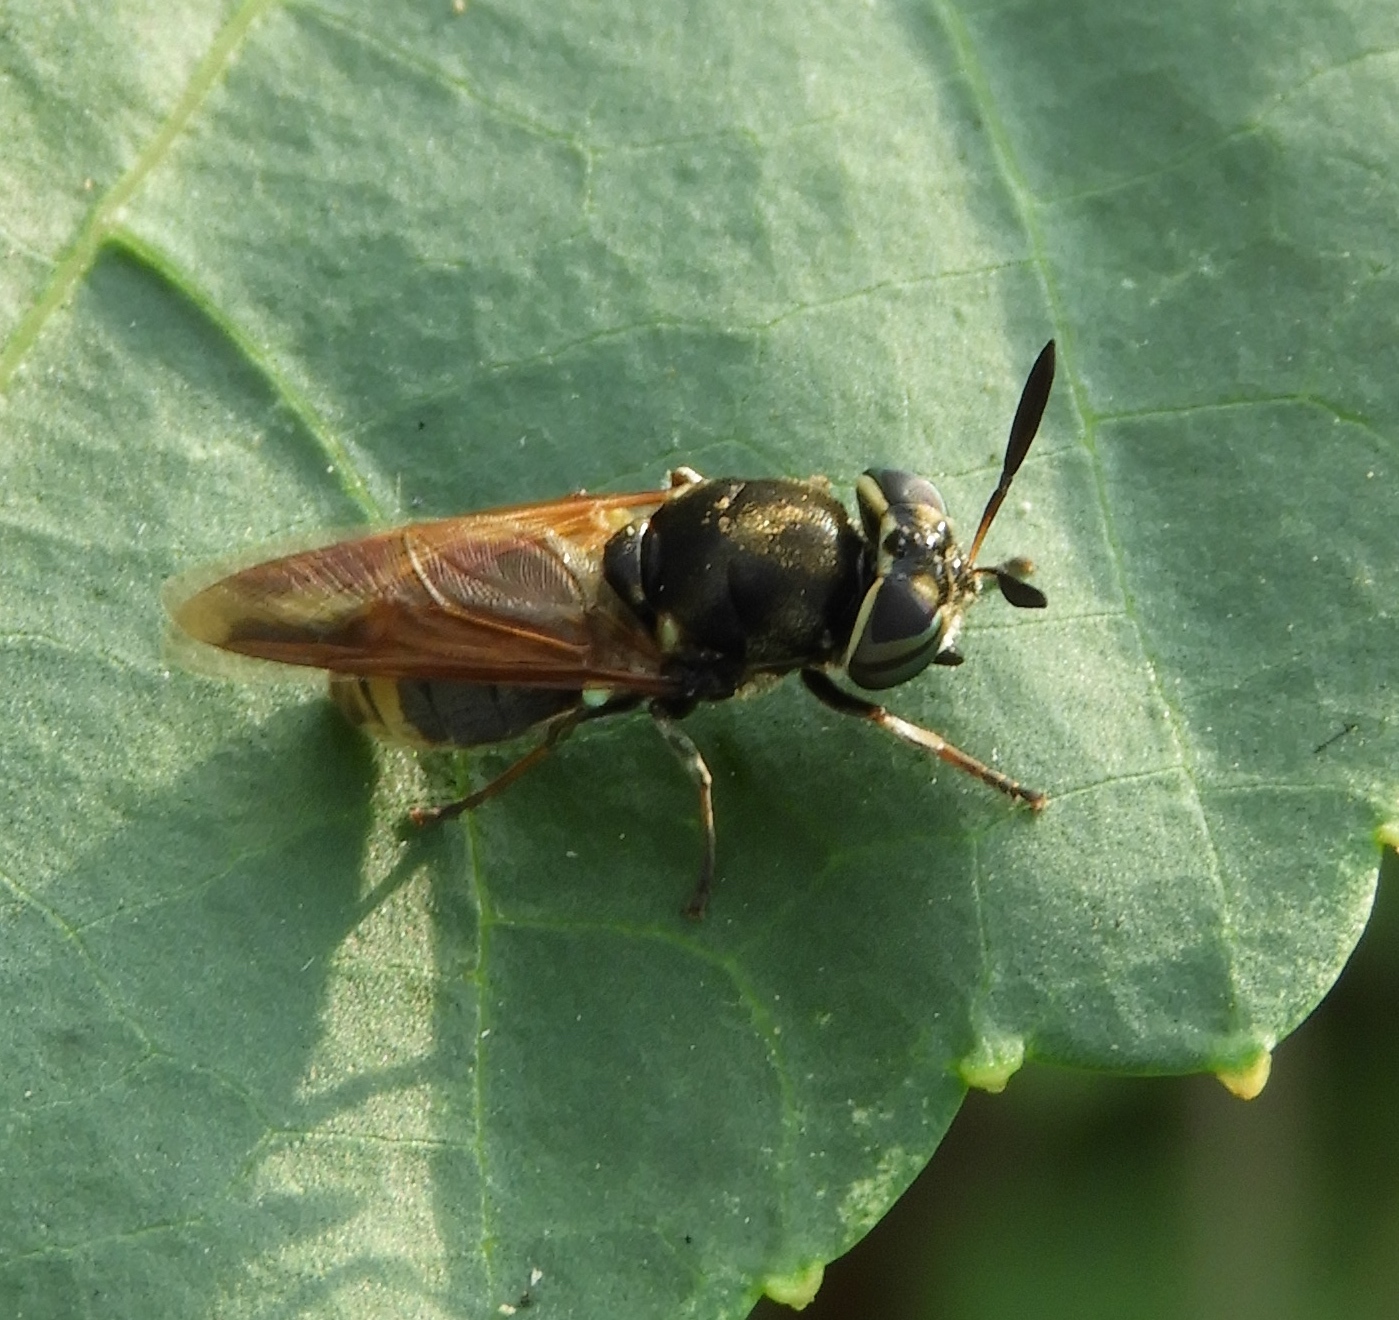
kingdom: Animalia
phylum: Arthropoda
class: Insecta
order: Diptera
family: Stratiomyidae
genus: Hoplitimyia
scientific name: Hoplitimyia mutabilis
